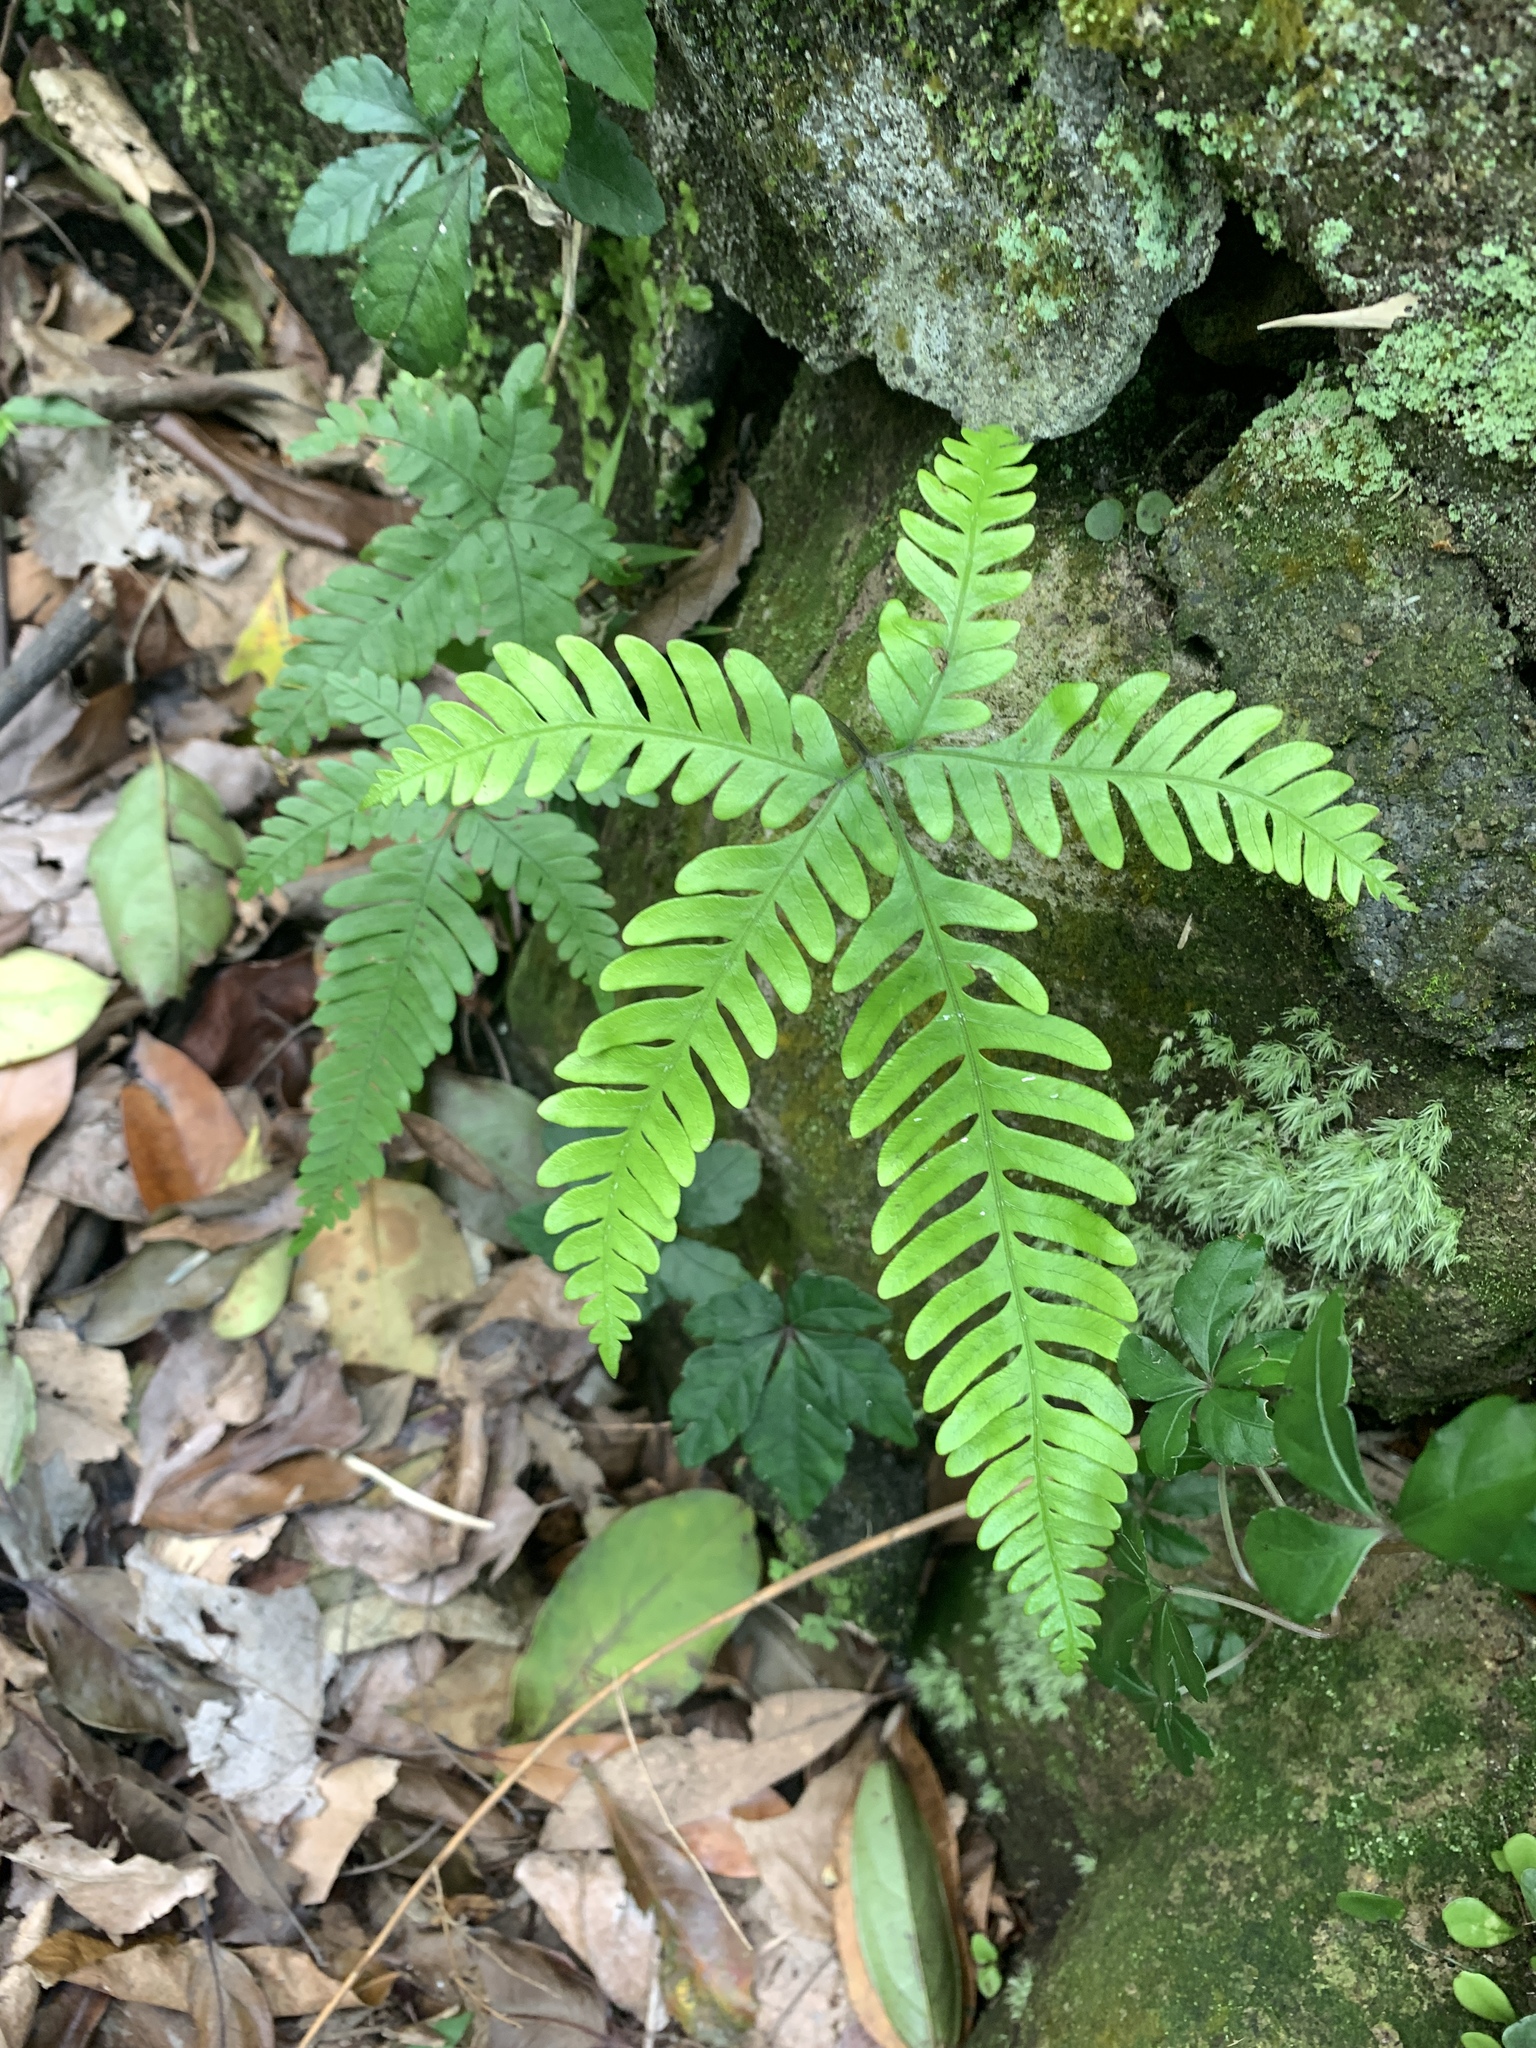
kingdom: Plantae
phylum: Tracheophyta
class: Polypodiopsida
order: Polypodiales
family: Pteridaceae
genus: Pteris
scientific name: Pteris fauriei
